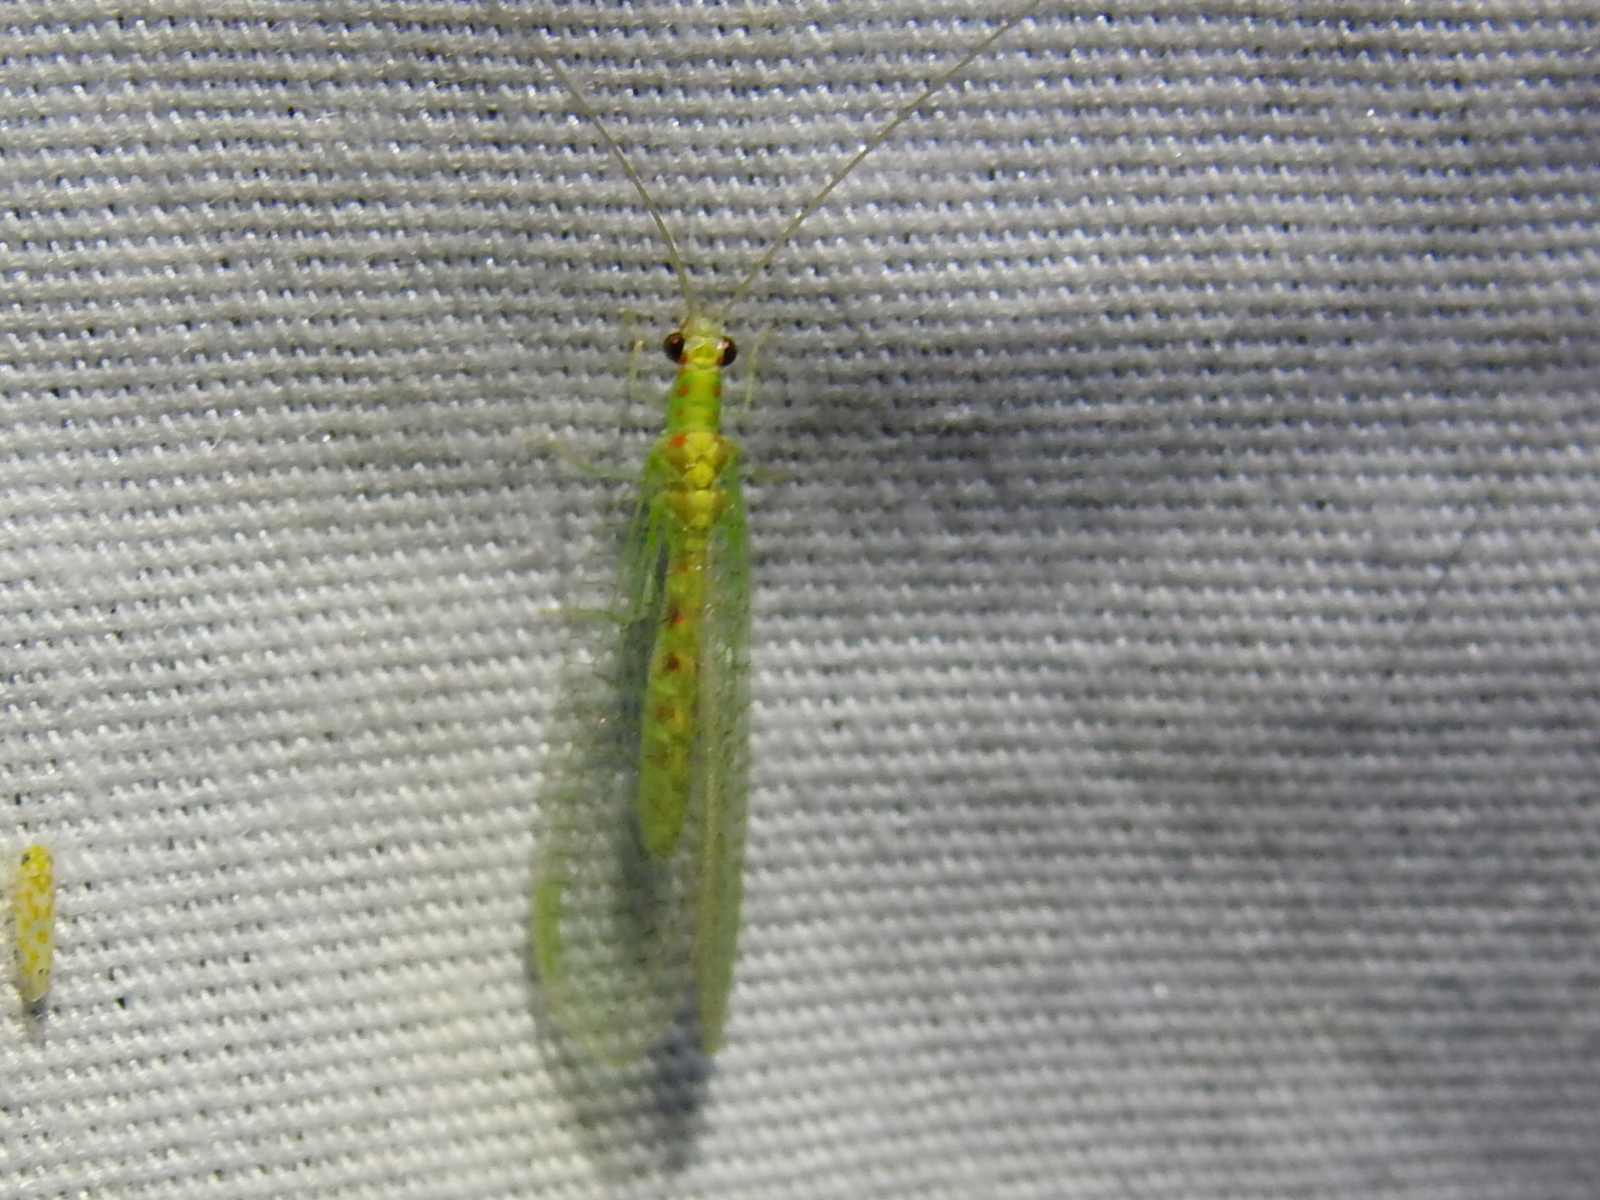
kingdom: Animalia
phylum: Arthropoda
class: Insecta
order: Neuroptera
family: Chrysopidae
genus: Chrysopa
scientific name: Chrysopa quadripunctata
